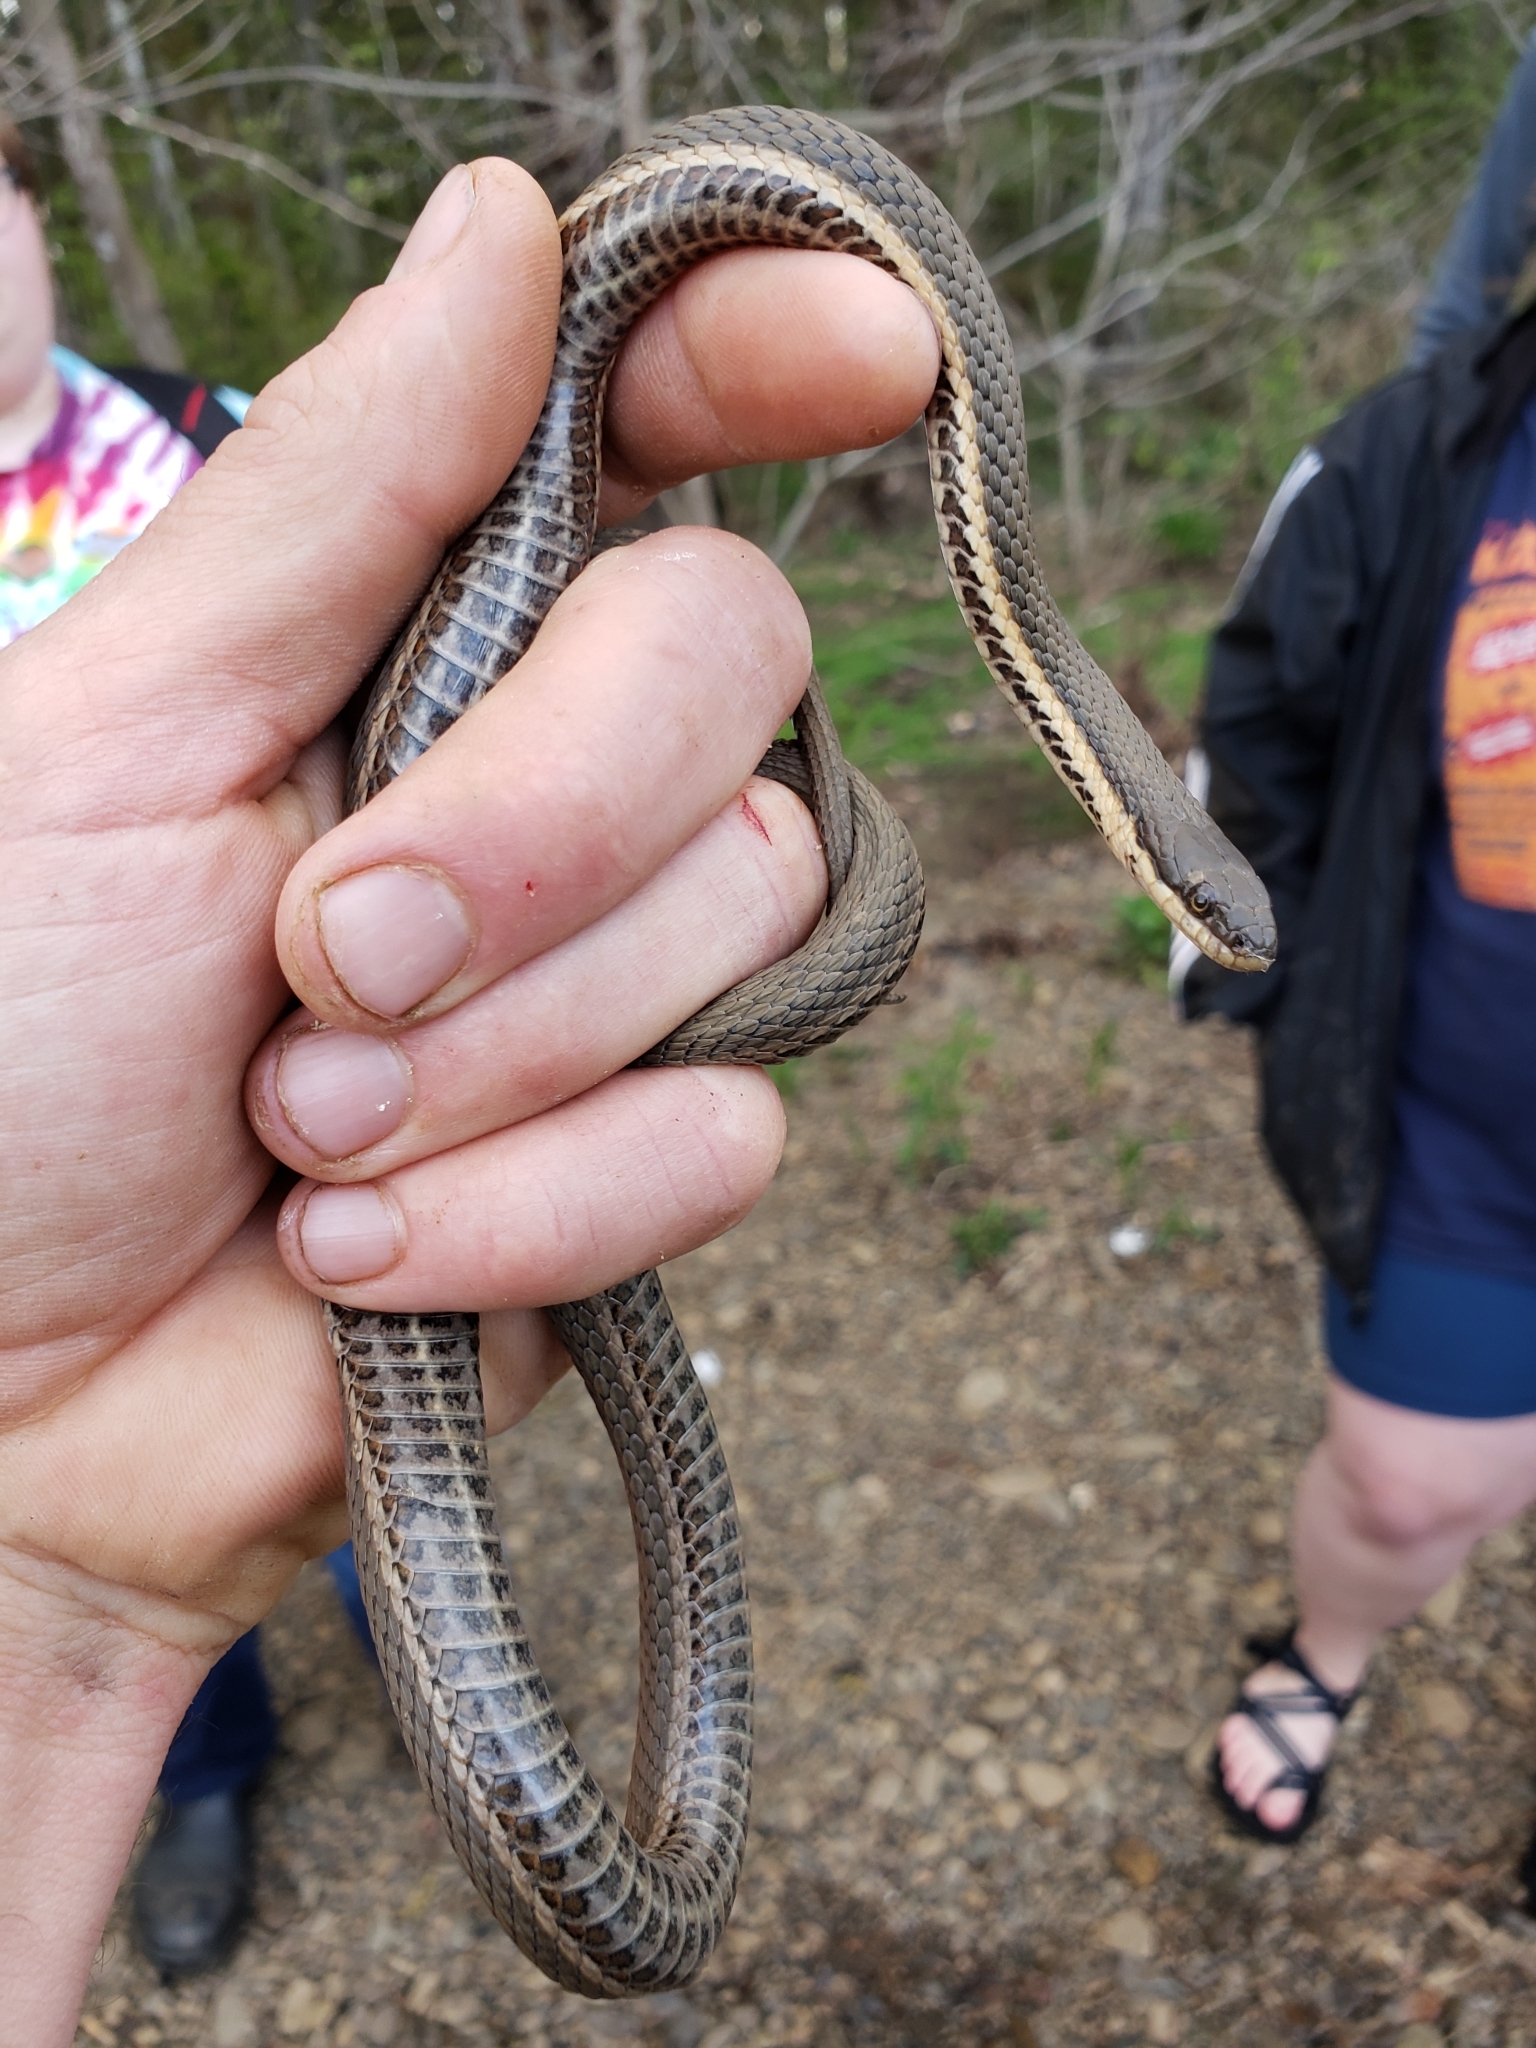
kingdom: Animalia
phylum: Chordata
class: Squamata
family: Colubridae
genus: Regina
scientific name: Regina septemvittata
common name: Queen snake
